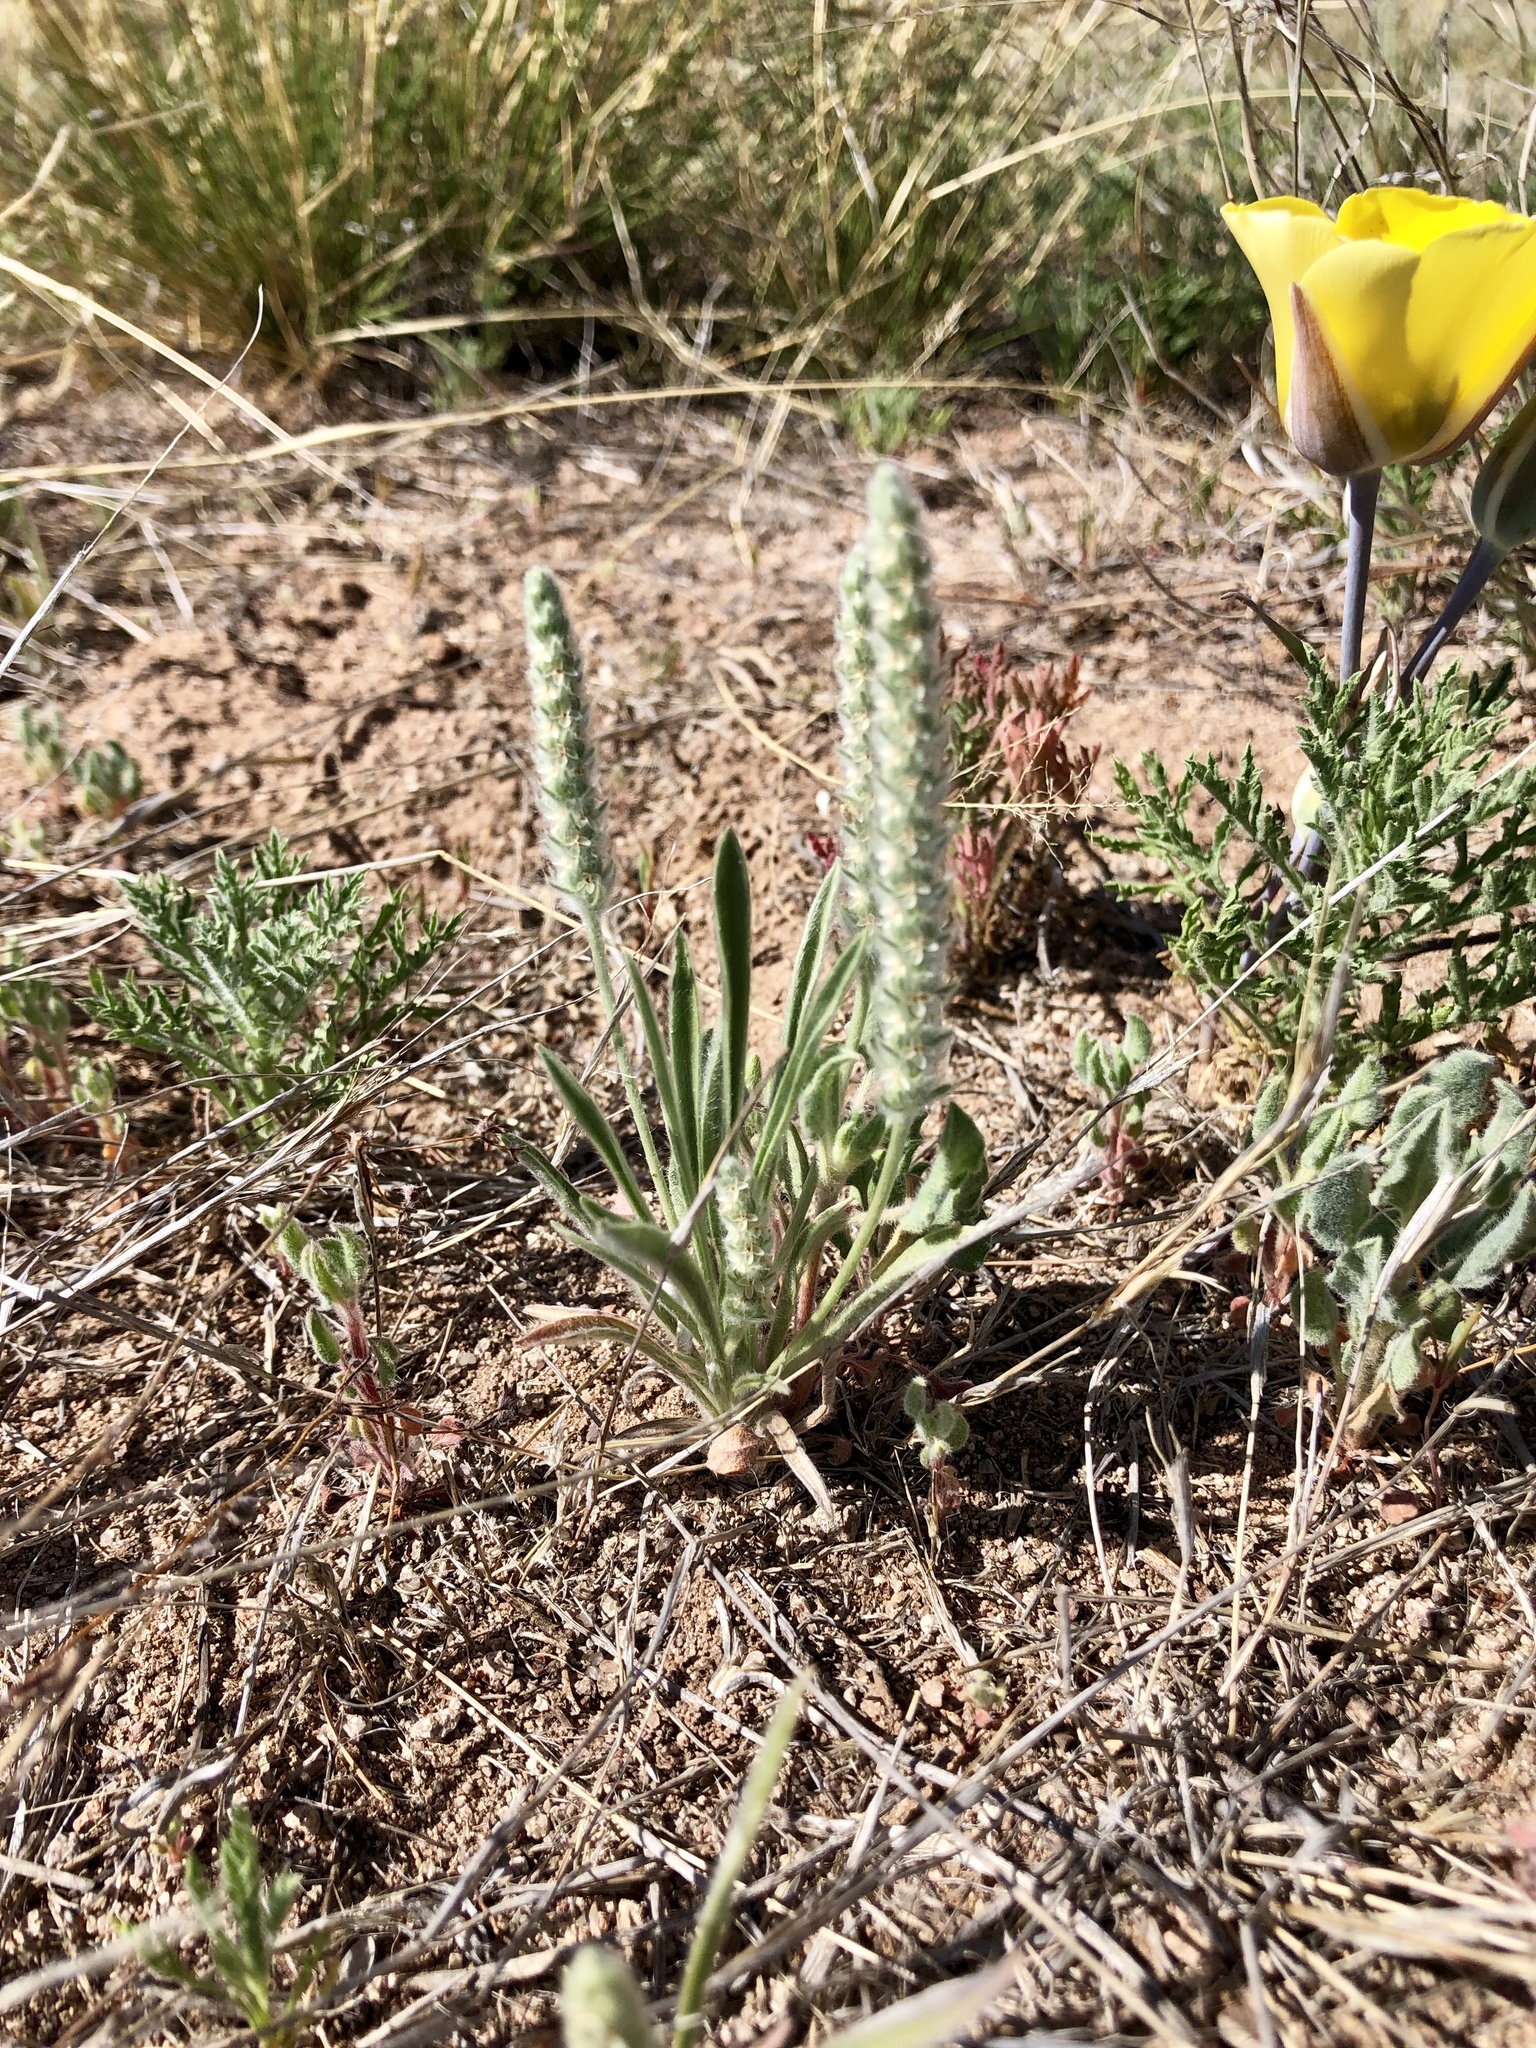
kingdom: Plantae
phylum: Tracheophyta
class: Magnoliopsida
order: Lamiales
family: Plantaginaceae
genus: Plantago
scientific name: Plantago patagonica
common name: Patagonia indian-wheat
